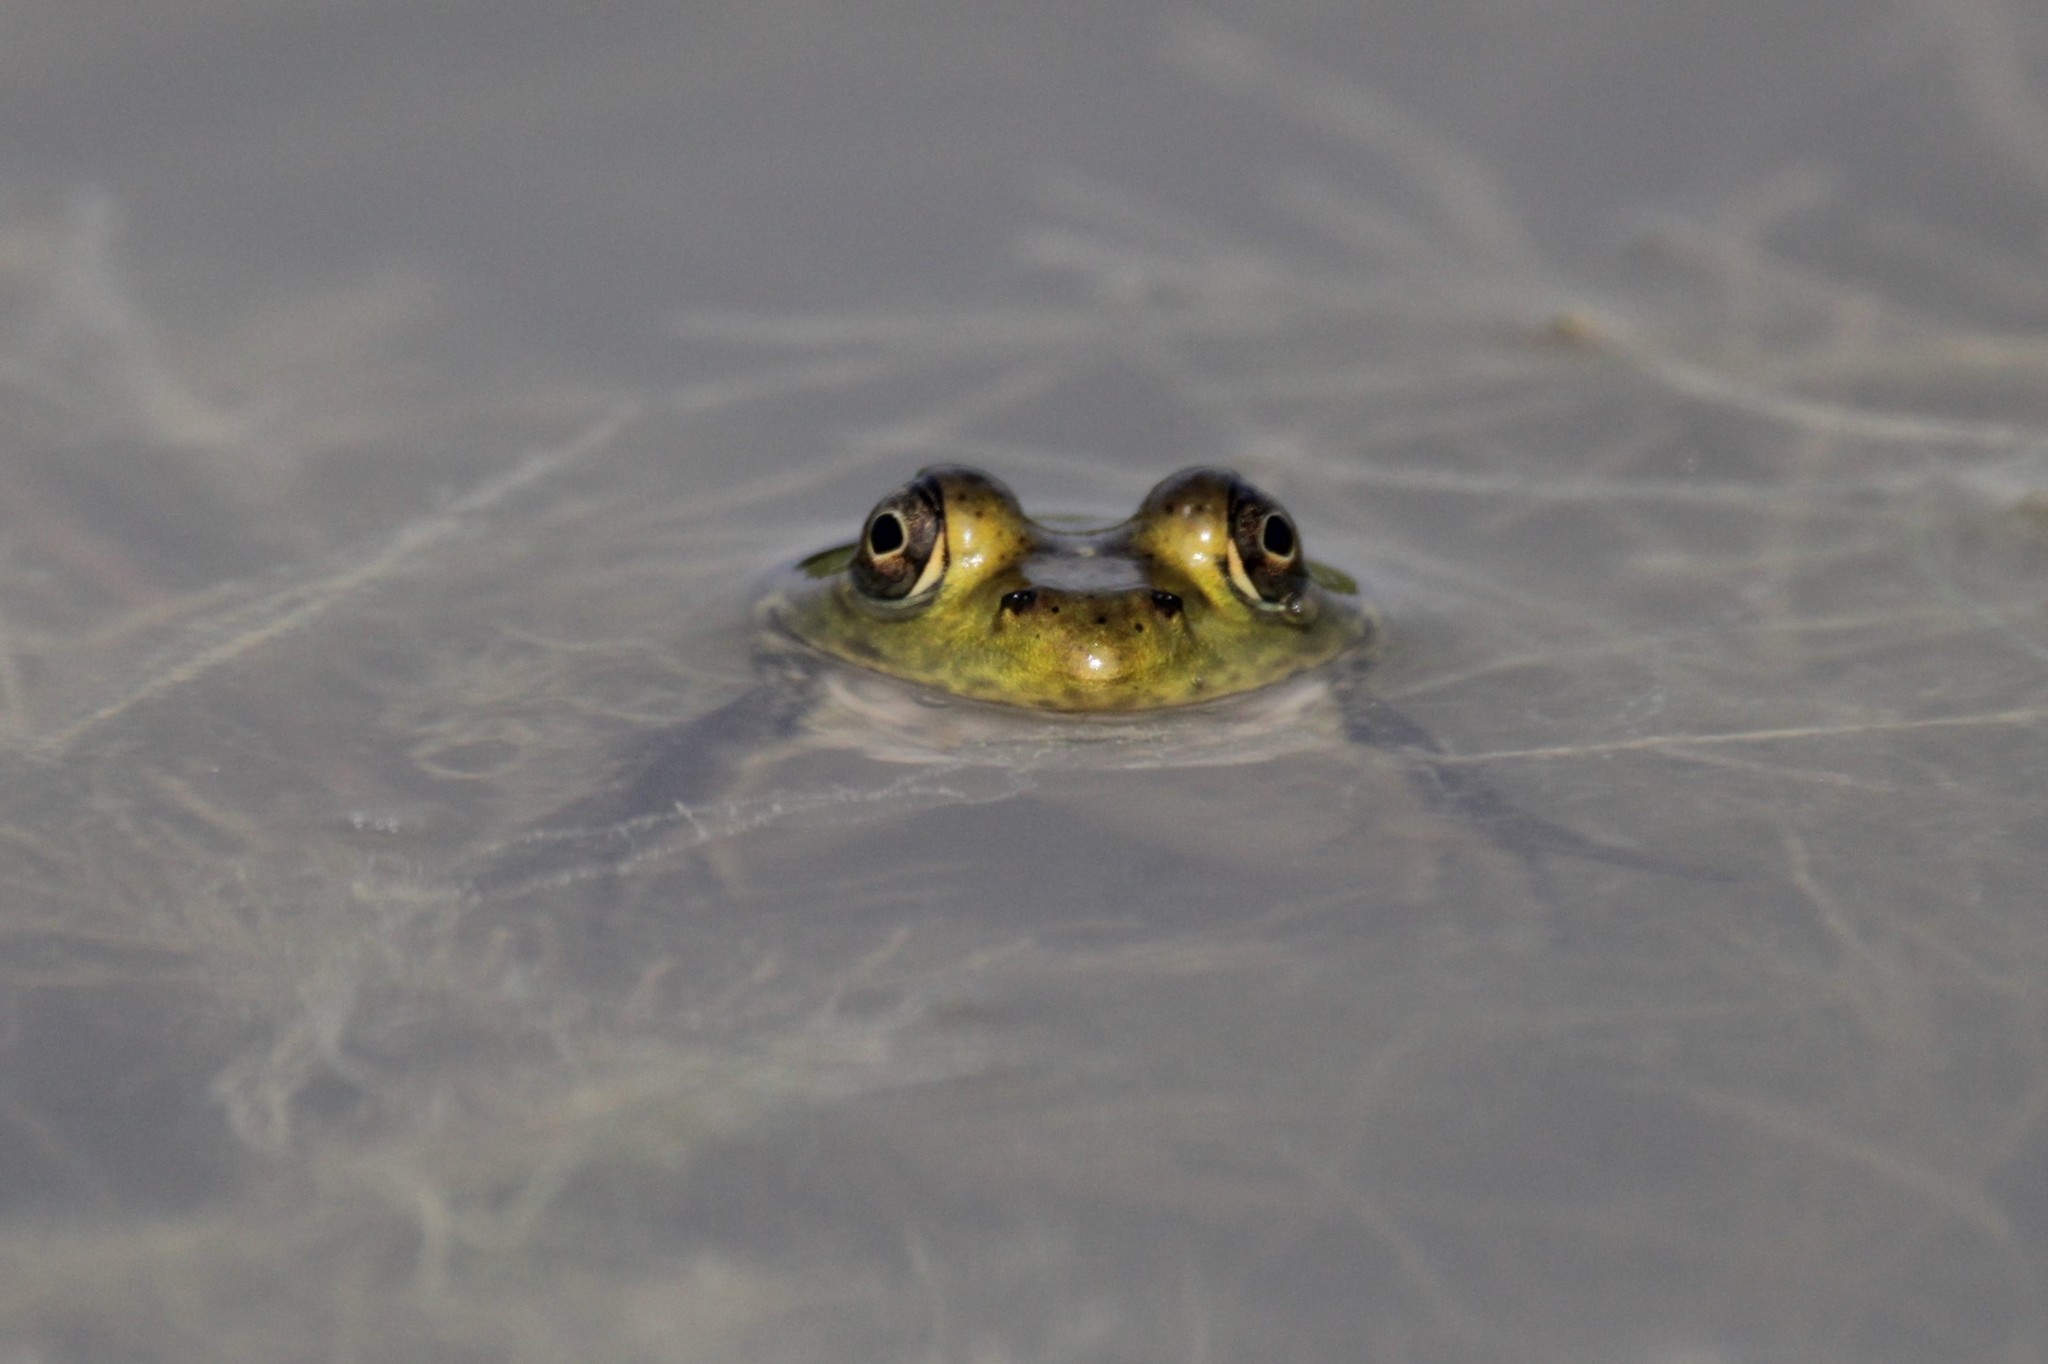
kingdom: Animalia
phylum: Chordata
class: Amphibia
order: Anura
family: Ranidae
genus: Lithobates
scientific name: Lithobates
